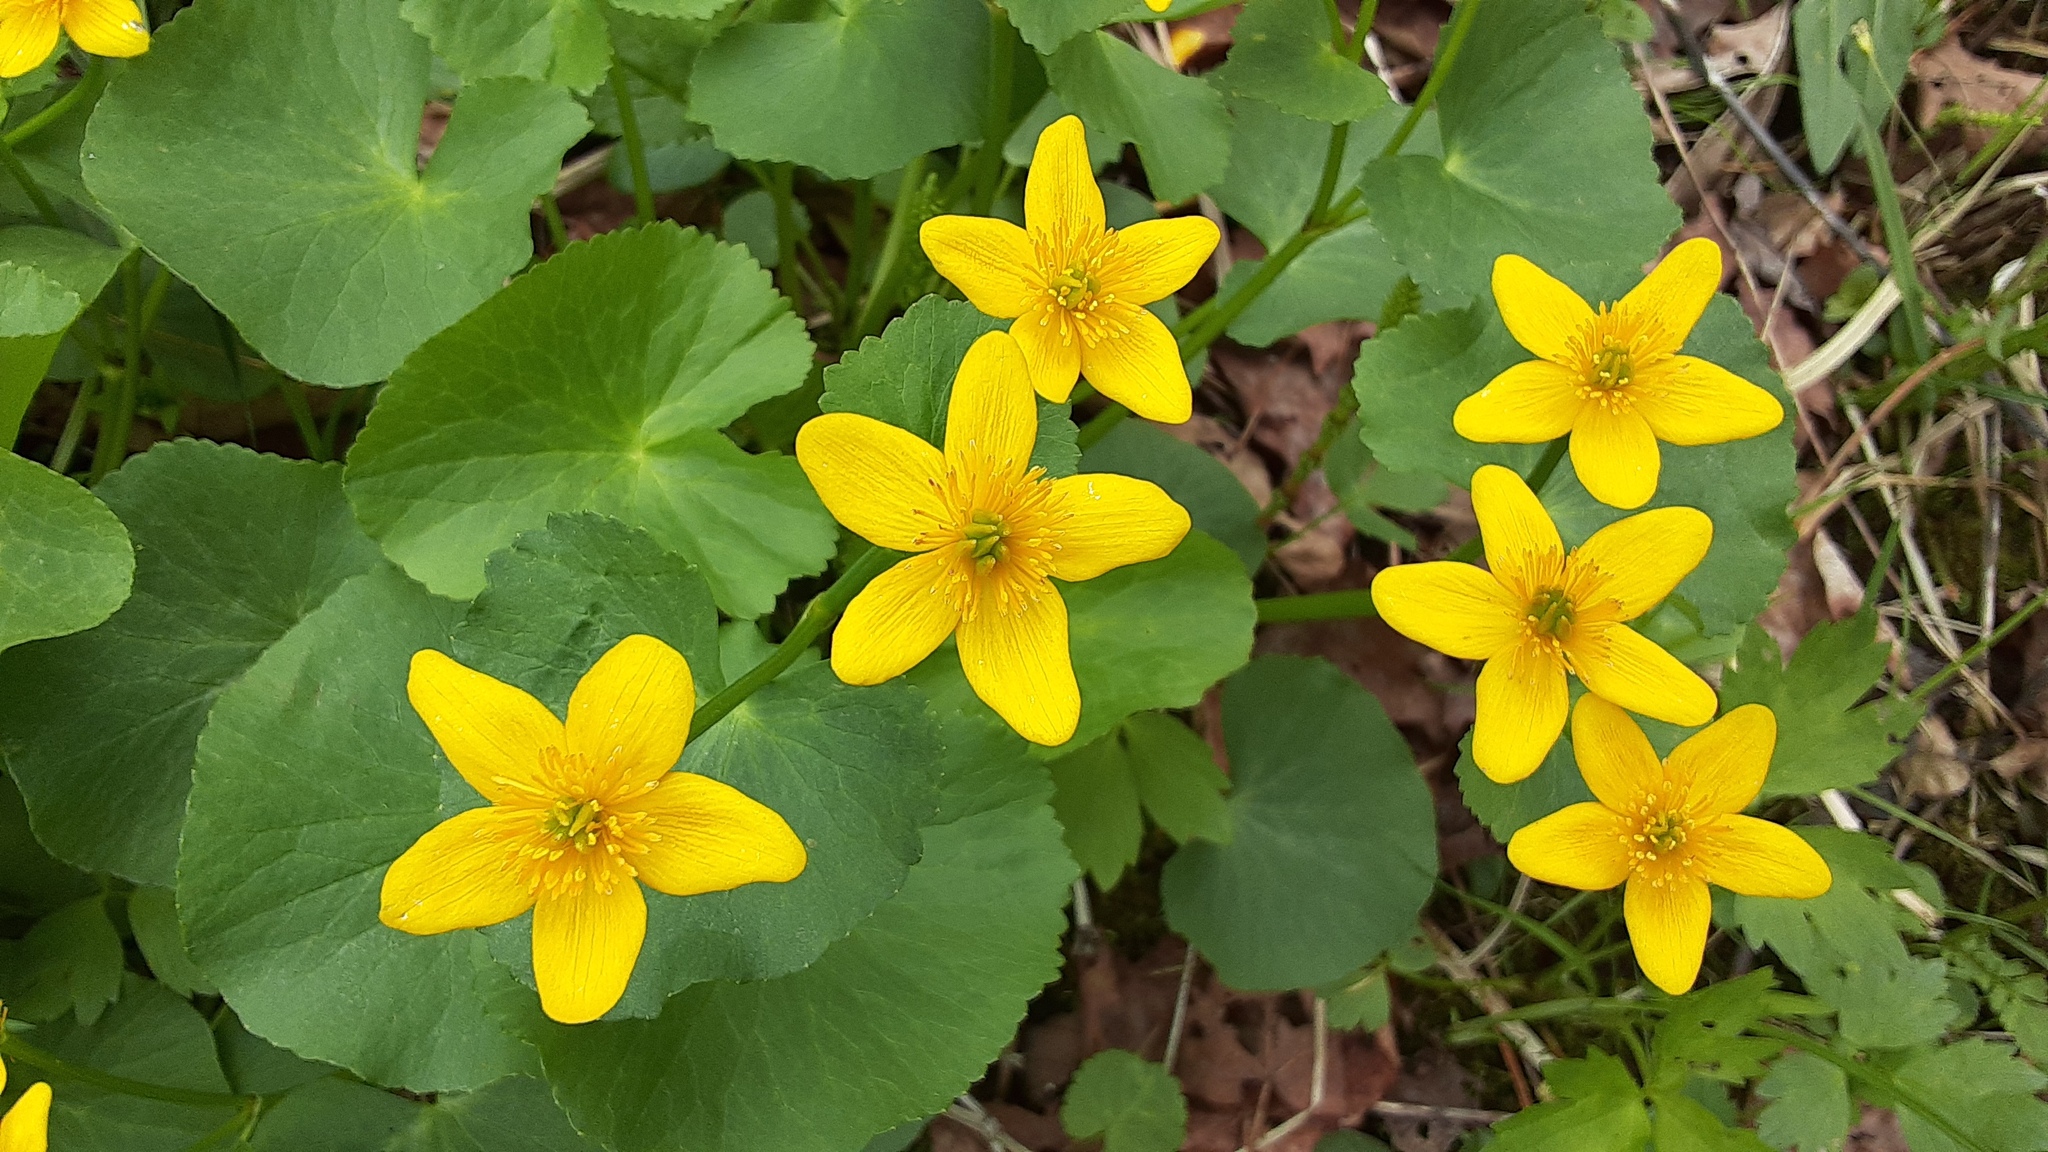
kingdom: Plantae
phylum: Tracheophyta
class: Magnoliopsida
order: Ranunculales
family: Ranunculaceae
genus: Caltha
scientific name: Caltha palustris
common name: Marsh marigold
